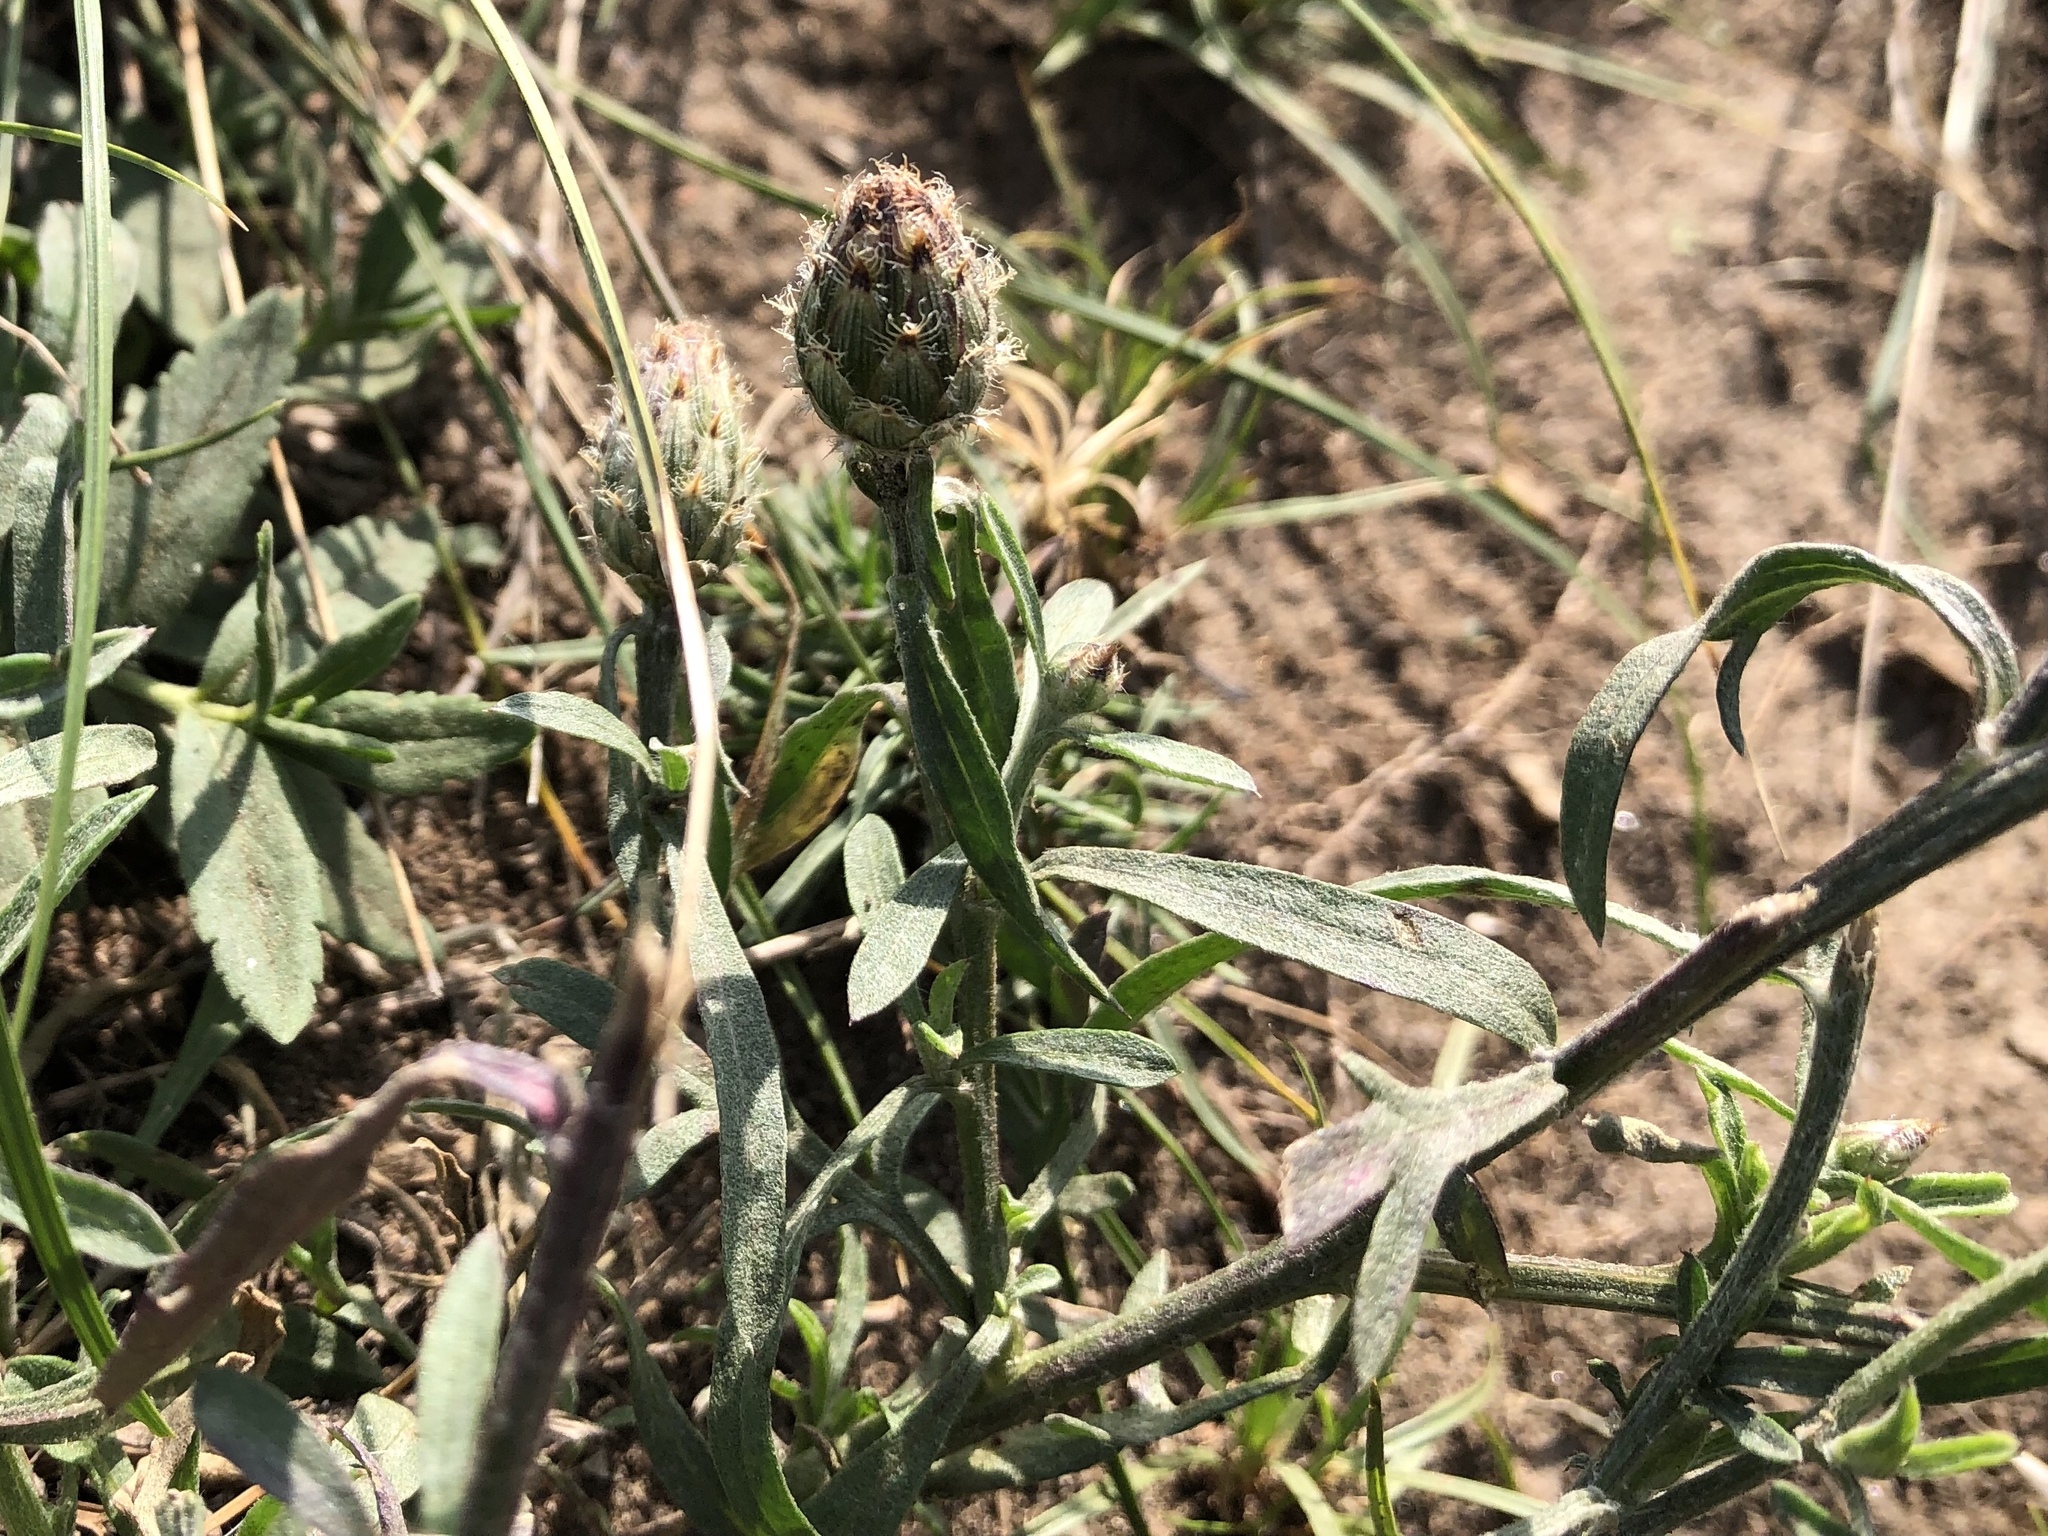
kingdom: Plantae
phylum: Tracheophyta
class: Magnoliopsida
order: Asterales
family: Asteraceae
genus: Centaurea
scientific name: Centaurea stoebe
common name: Spotted knapweed
